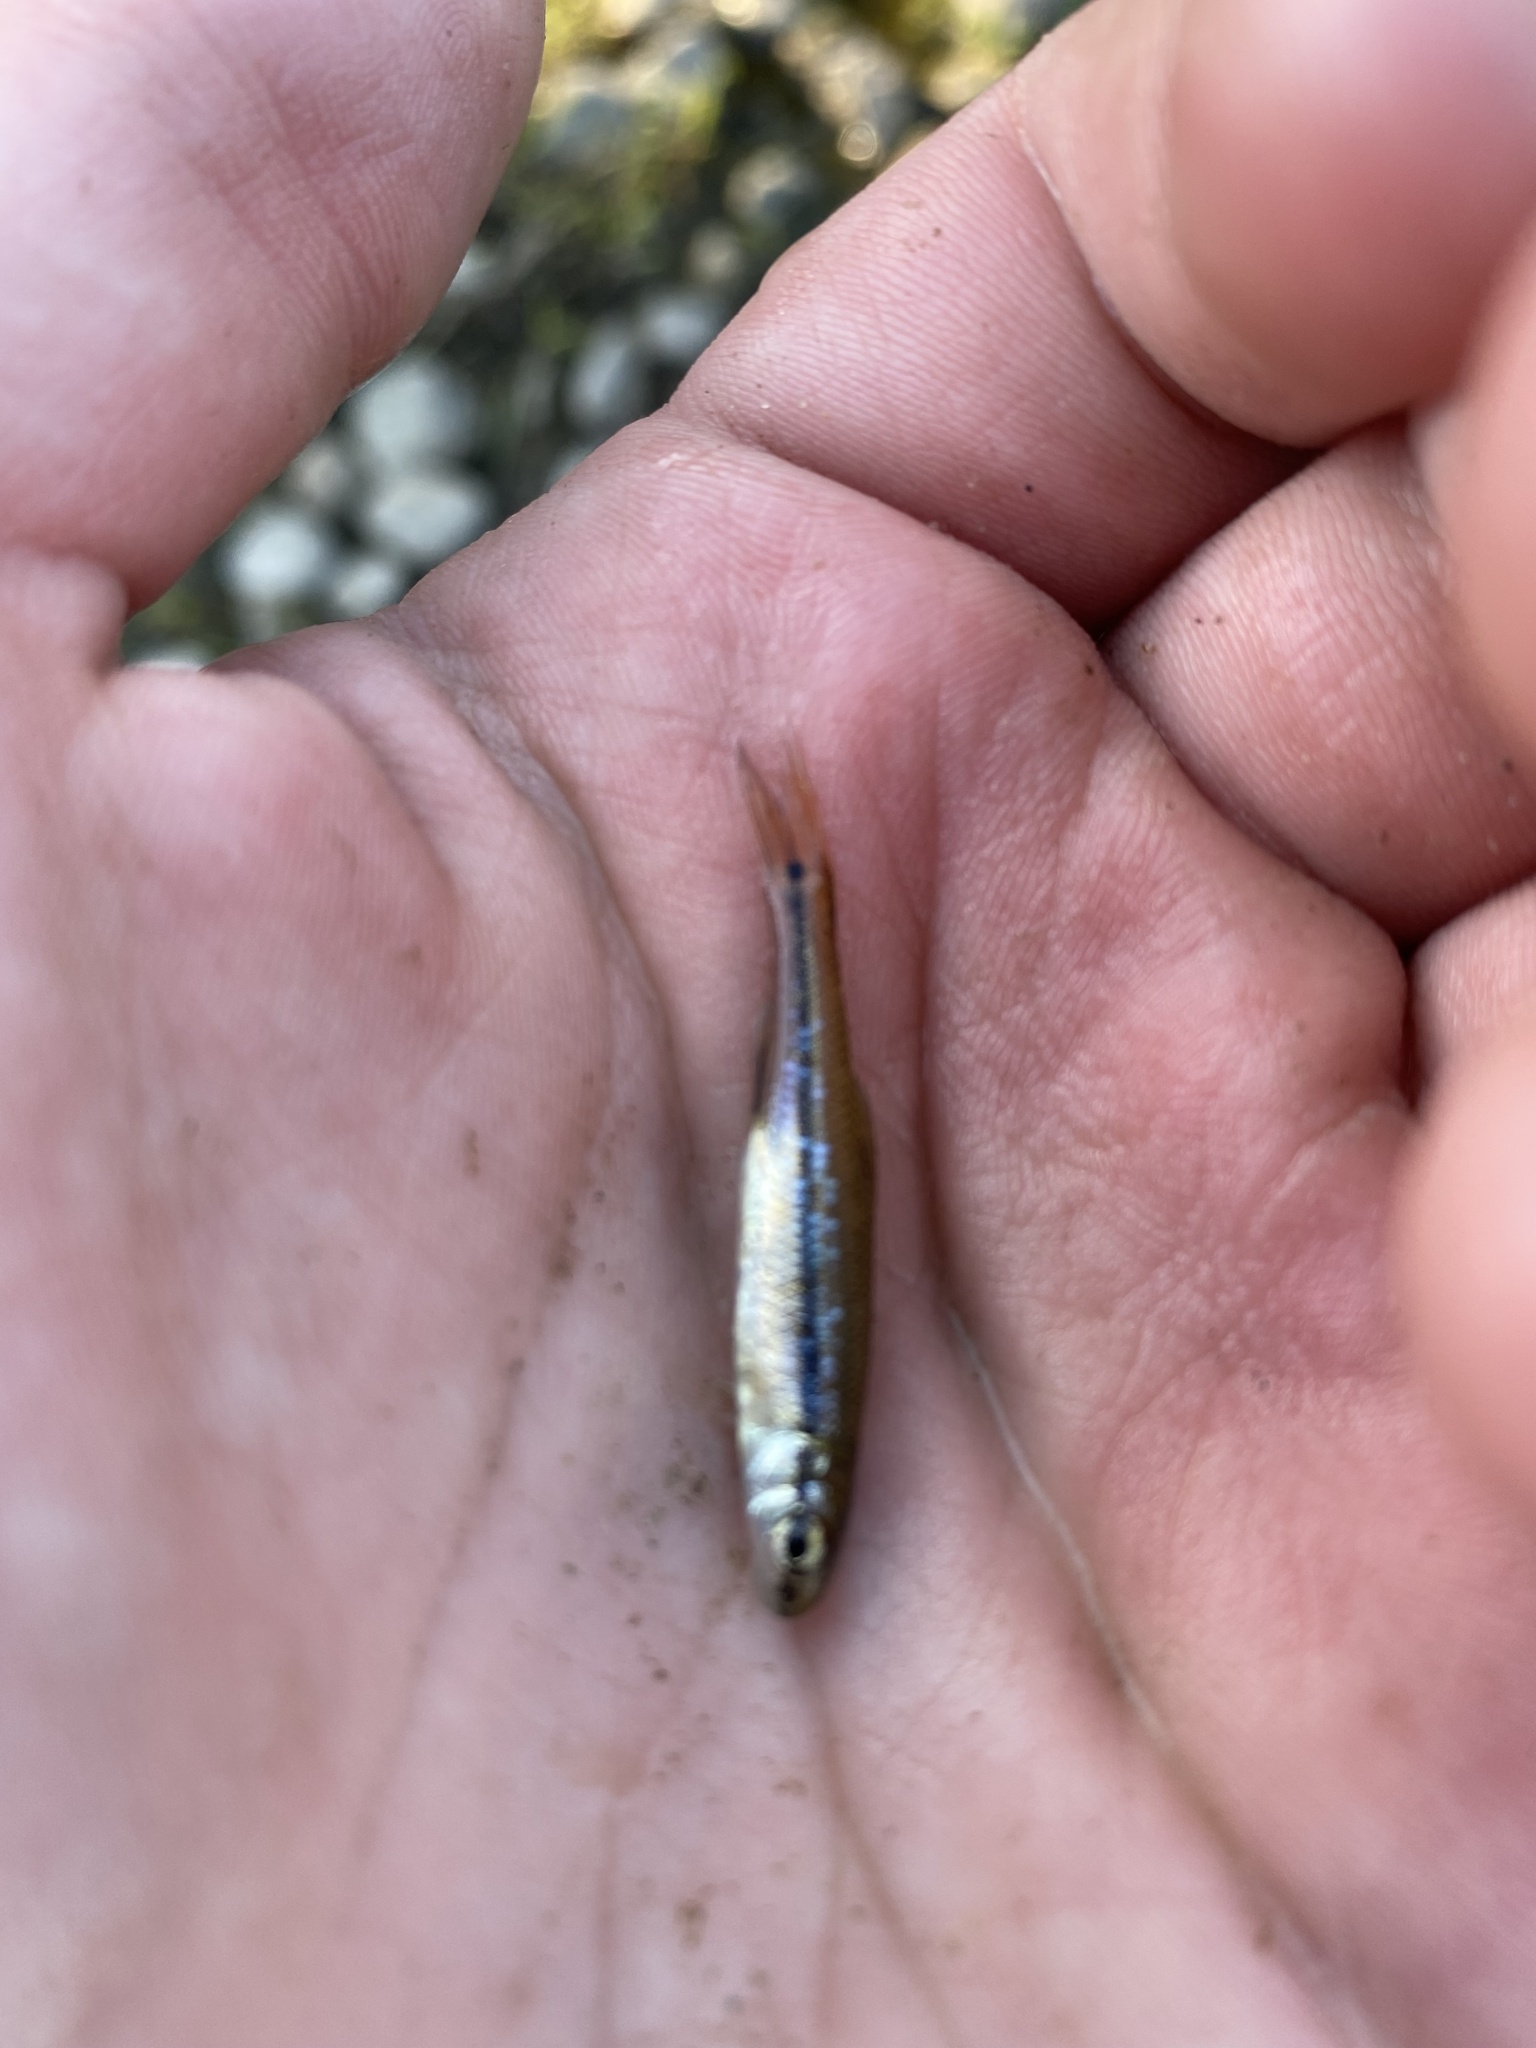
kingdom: Animalia
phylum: Chordata
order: Cypriniformes
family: Cyprinidae
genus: Pimephales
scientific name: Pimephales notatus
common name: Bluntnose minnow
